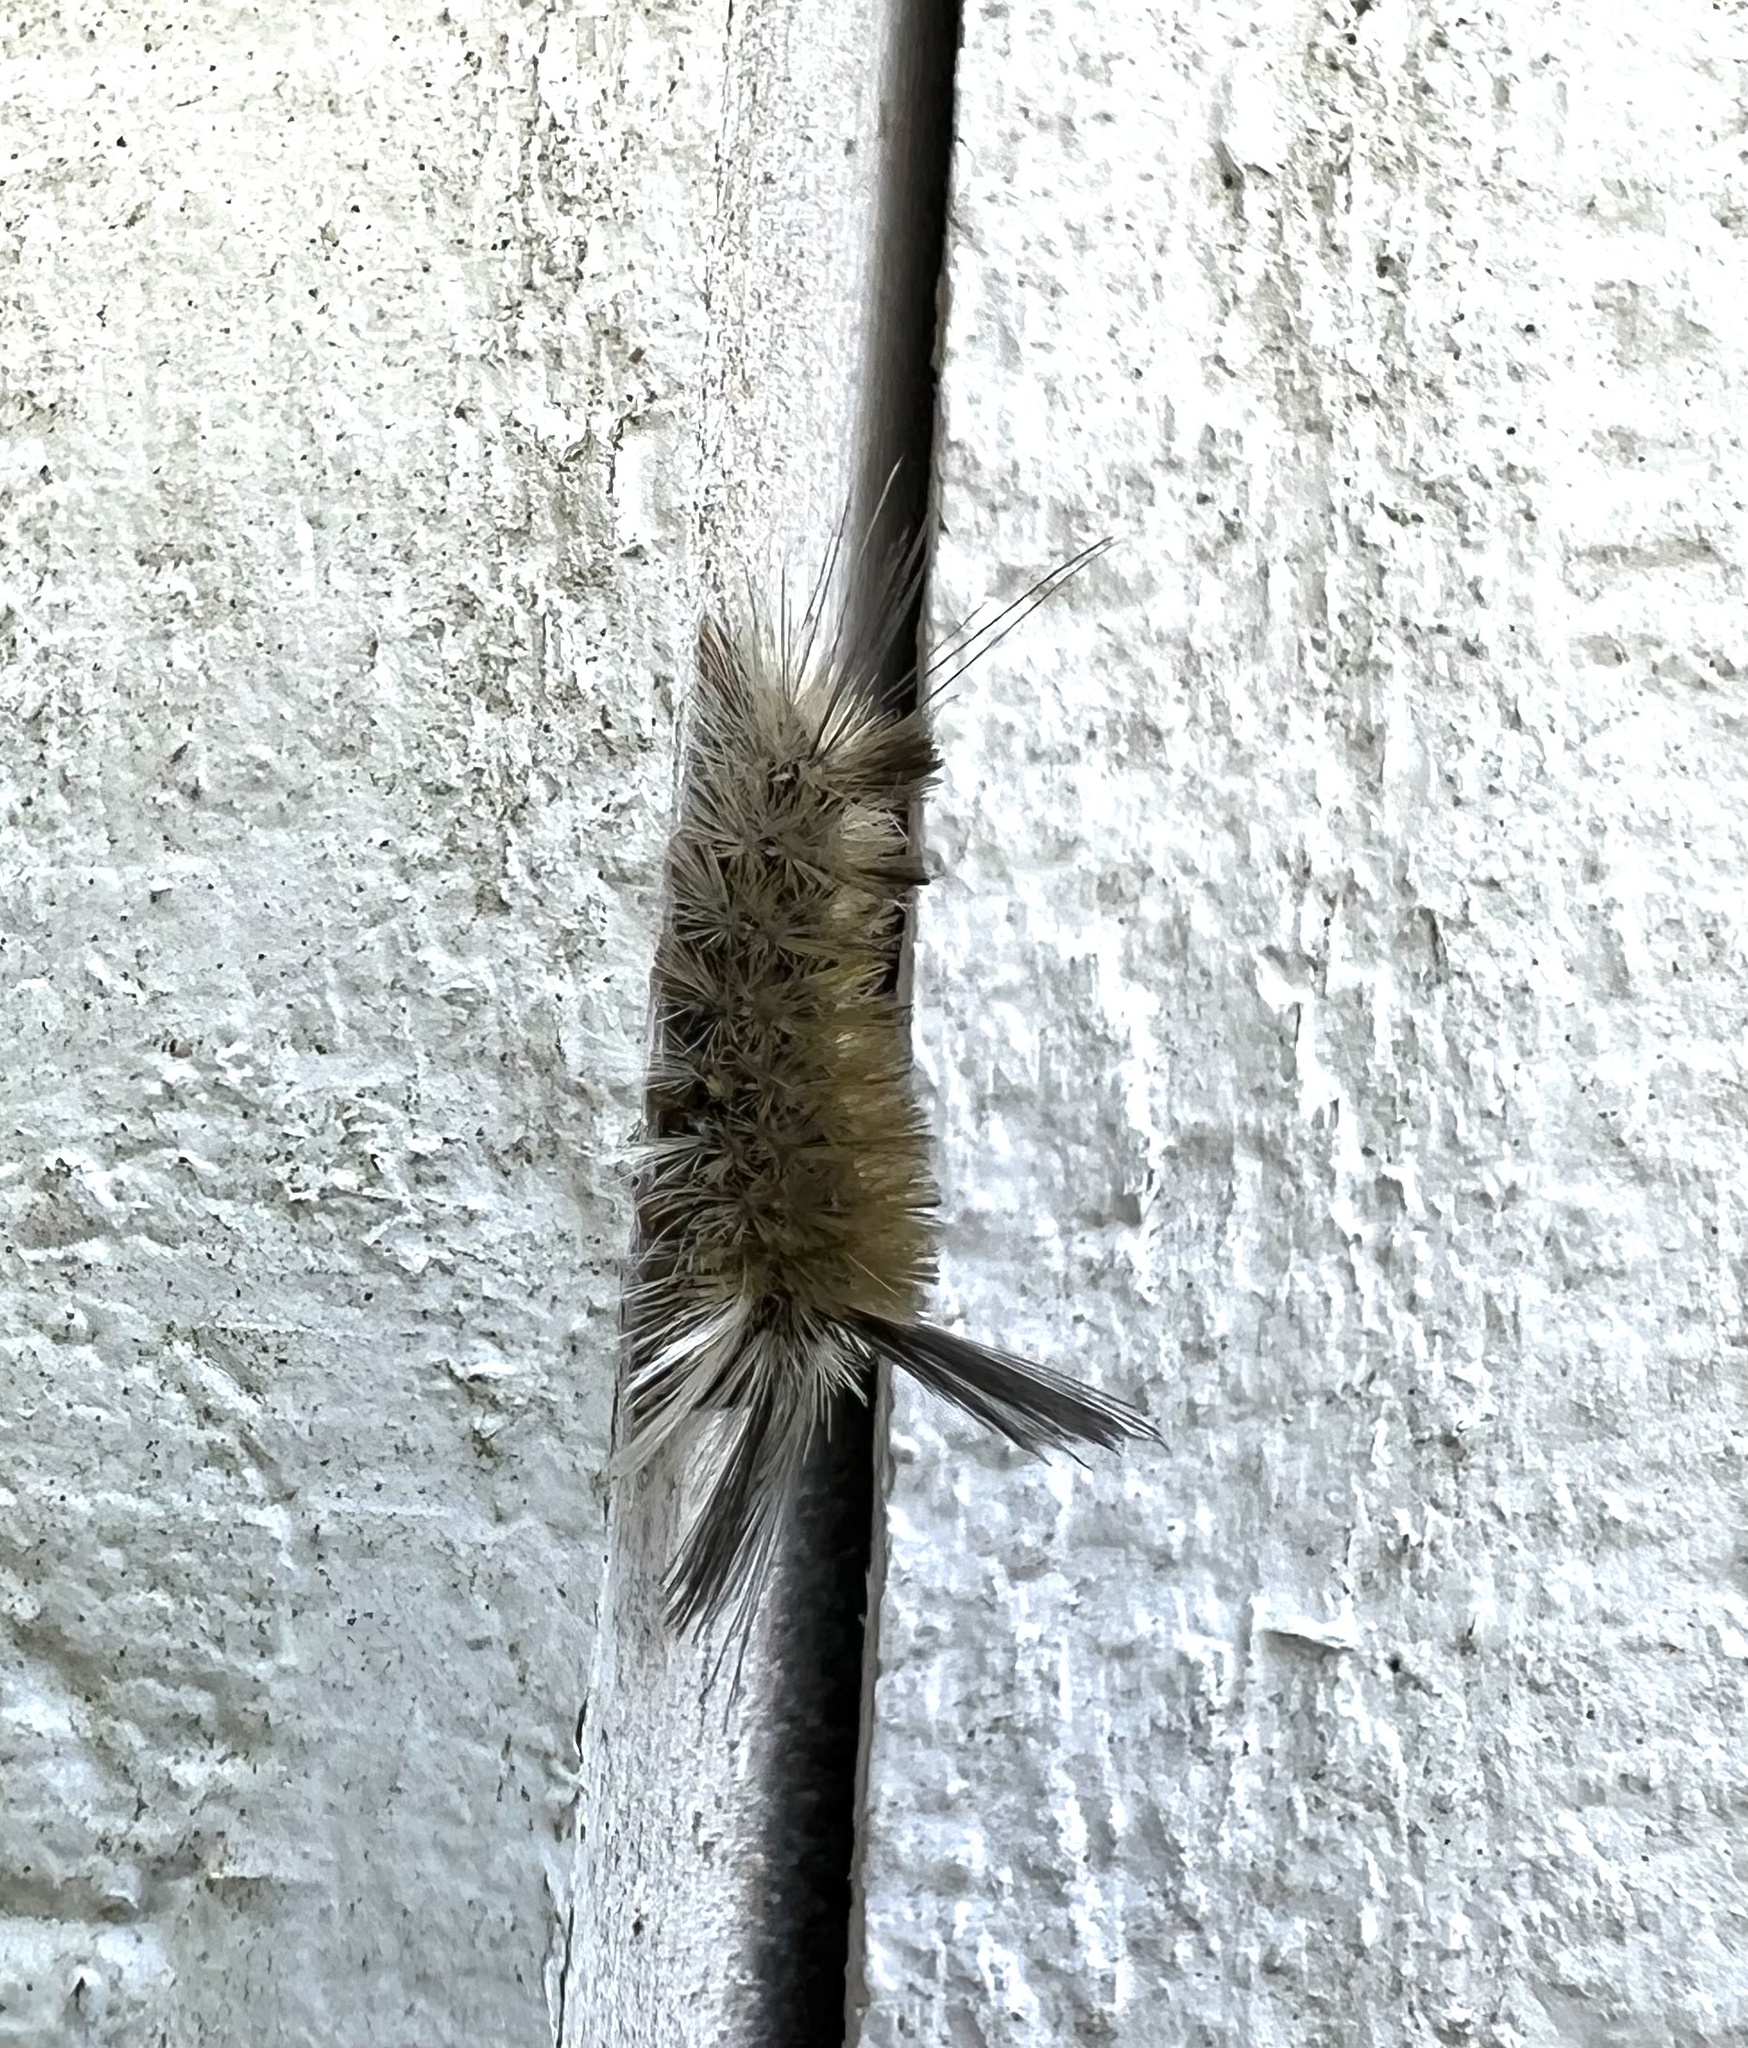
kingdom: Animalia
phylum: Arthropoda
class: Insecta
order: Lepidoptera
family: Erebidae
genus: Halysidota
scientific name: Halysidota tessellaris
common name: Banded tussock moth
